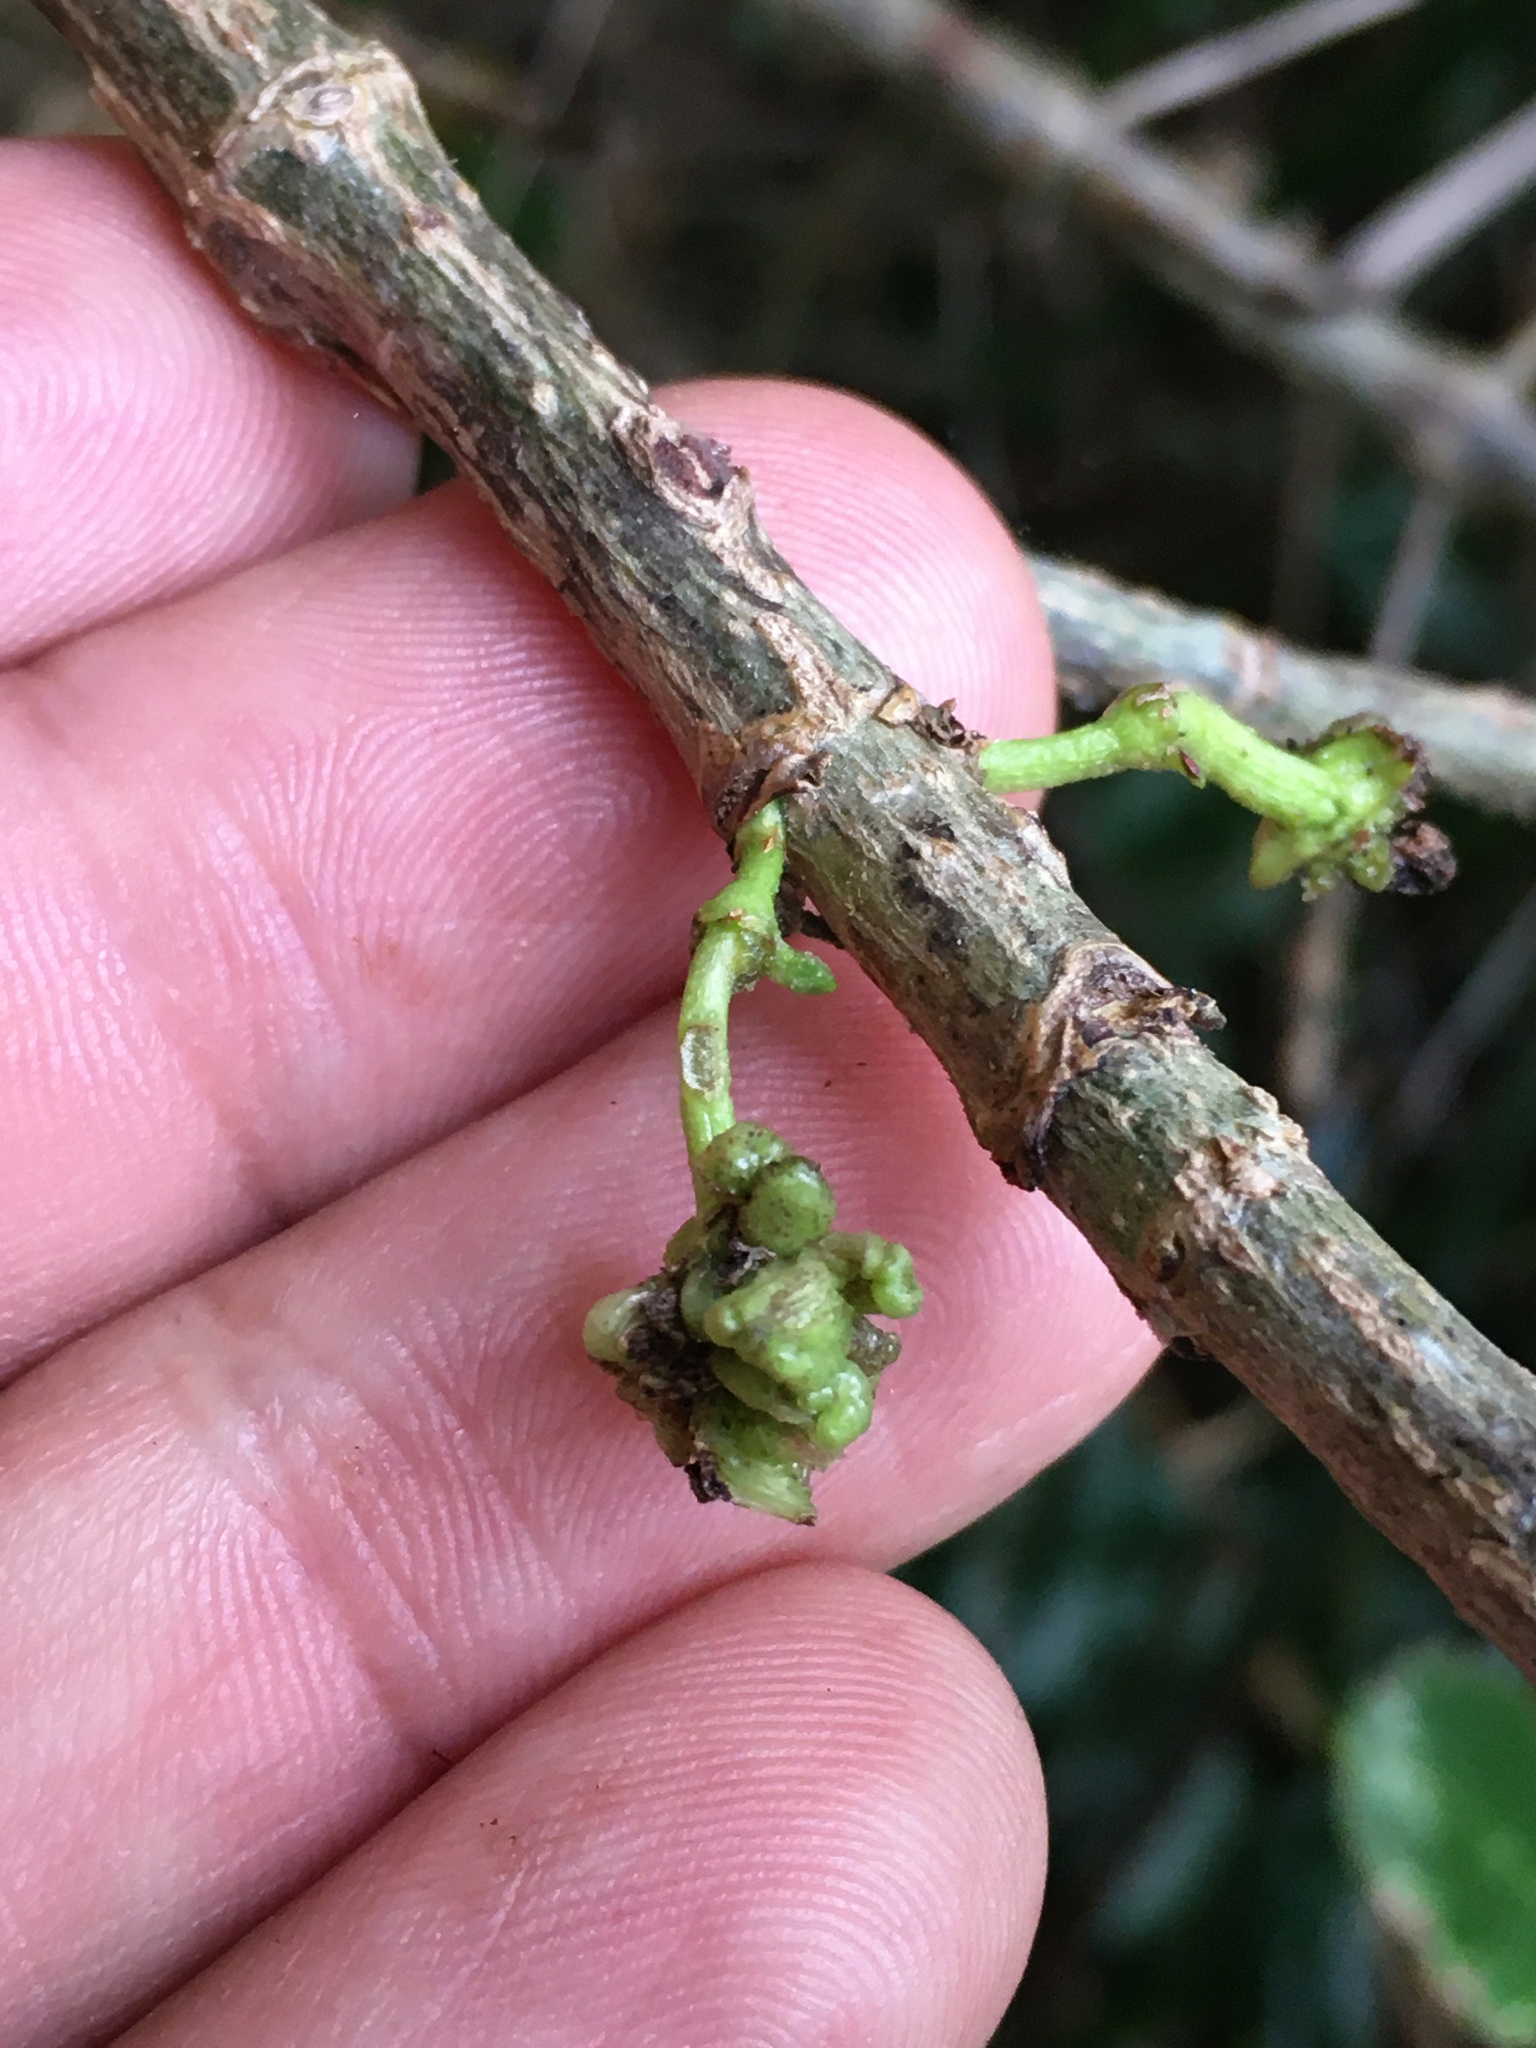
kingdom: Animalia
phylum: Arthropoda
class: Arachnida
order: Trombidiformes
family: Eriophyidae
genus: Acalitus
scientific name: Acalitus
